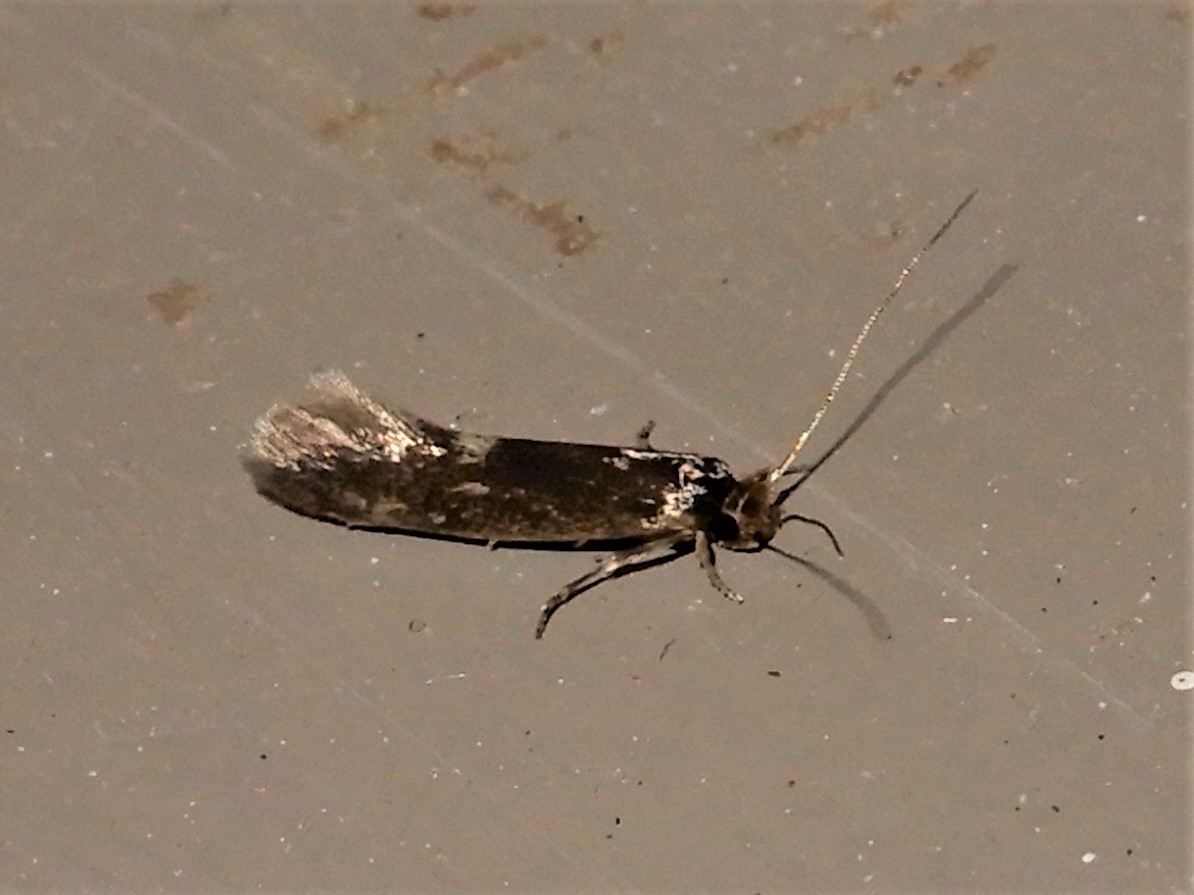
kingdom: Animalia
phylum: Arthropoda
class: Insecta
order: Lepidoptera
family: Tineidae
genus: Opogona
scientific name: Opogona omoscopa
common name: Moth
